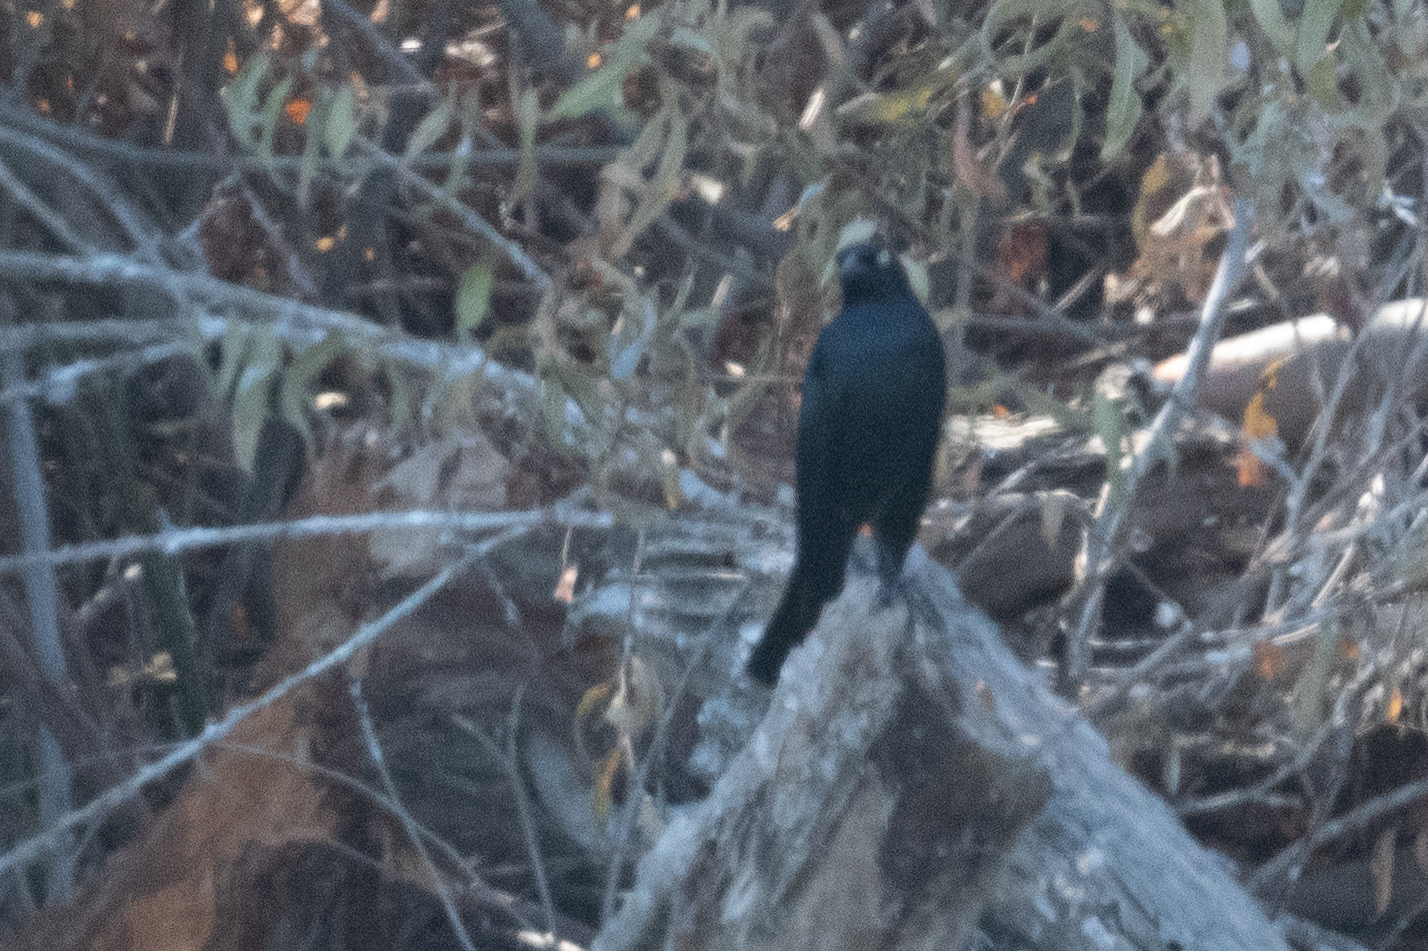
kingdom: Animalia
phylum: Chordata
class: Aves
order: Passeriformes
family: Icteridae
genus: Euphagus
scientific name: Euphagus cyanocephalus
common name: Brewer's blackbird
